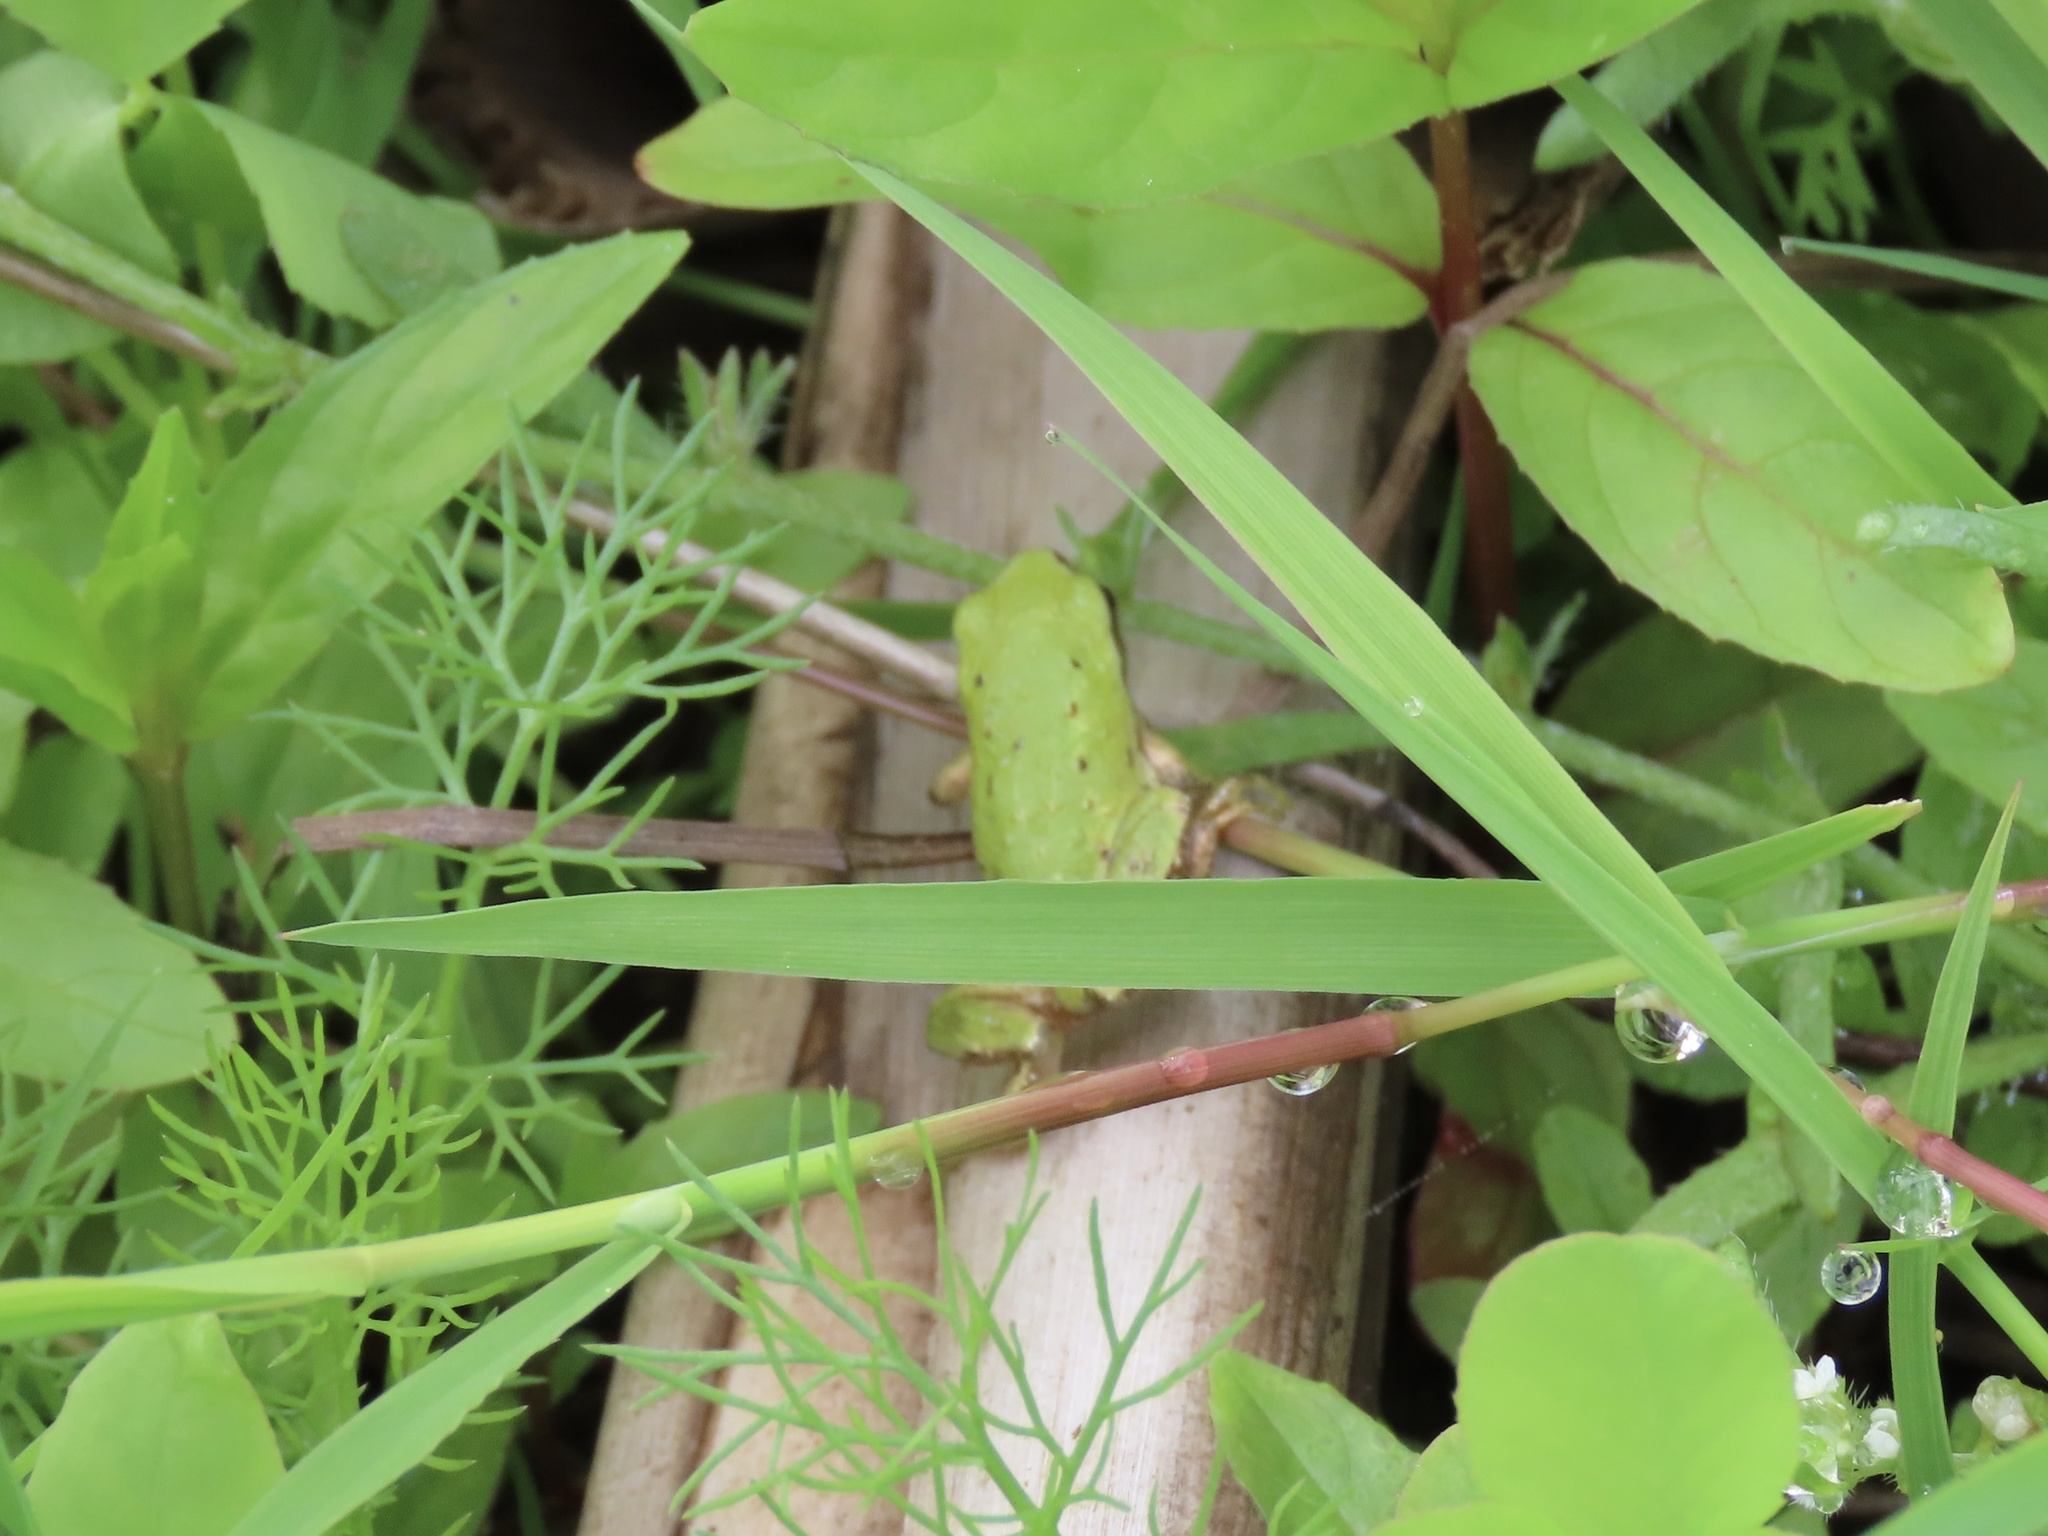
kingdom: Animalia
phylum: Chordata
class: Amphibia
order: Anura
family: Hylidae
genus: Pseudacris
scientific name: Pseudacris regilla
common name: Pacific chorus frog
